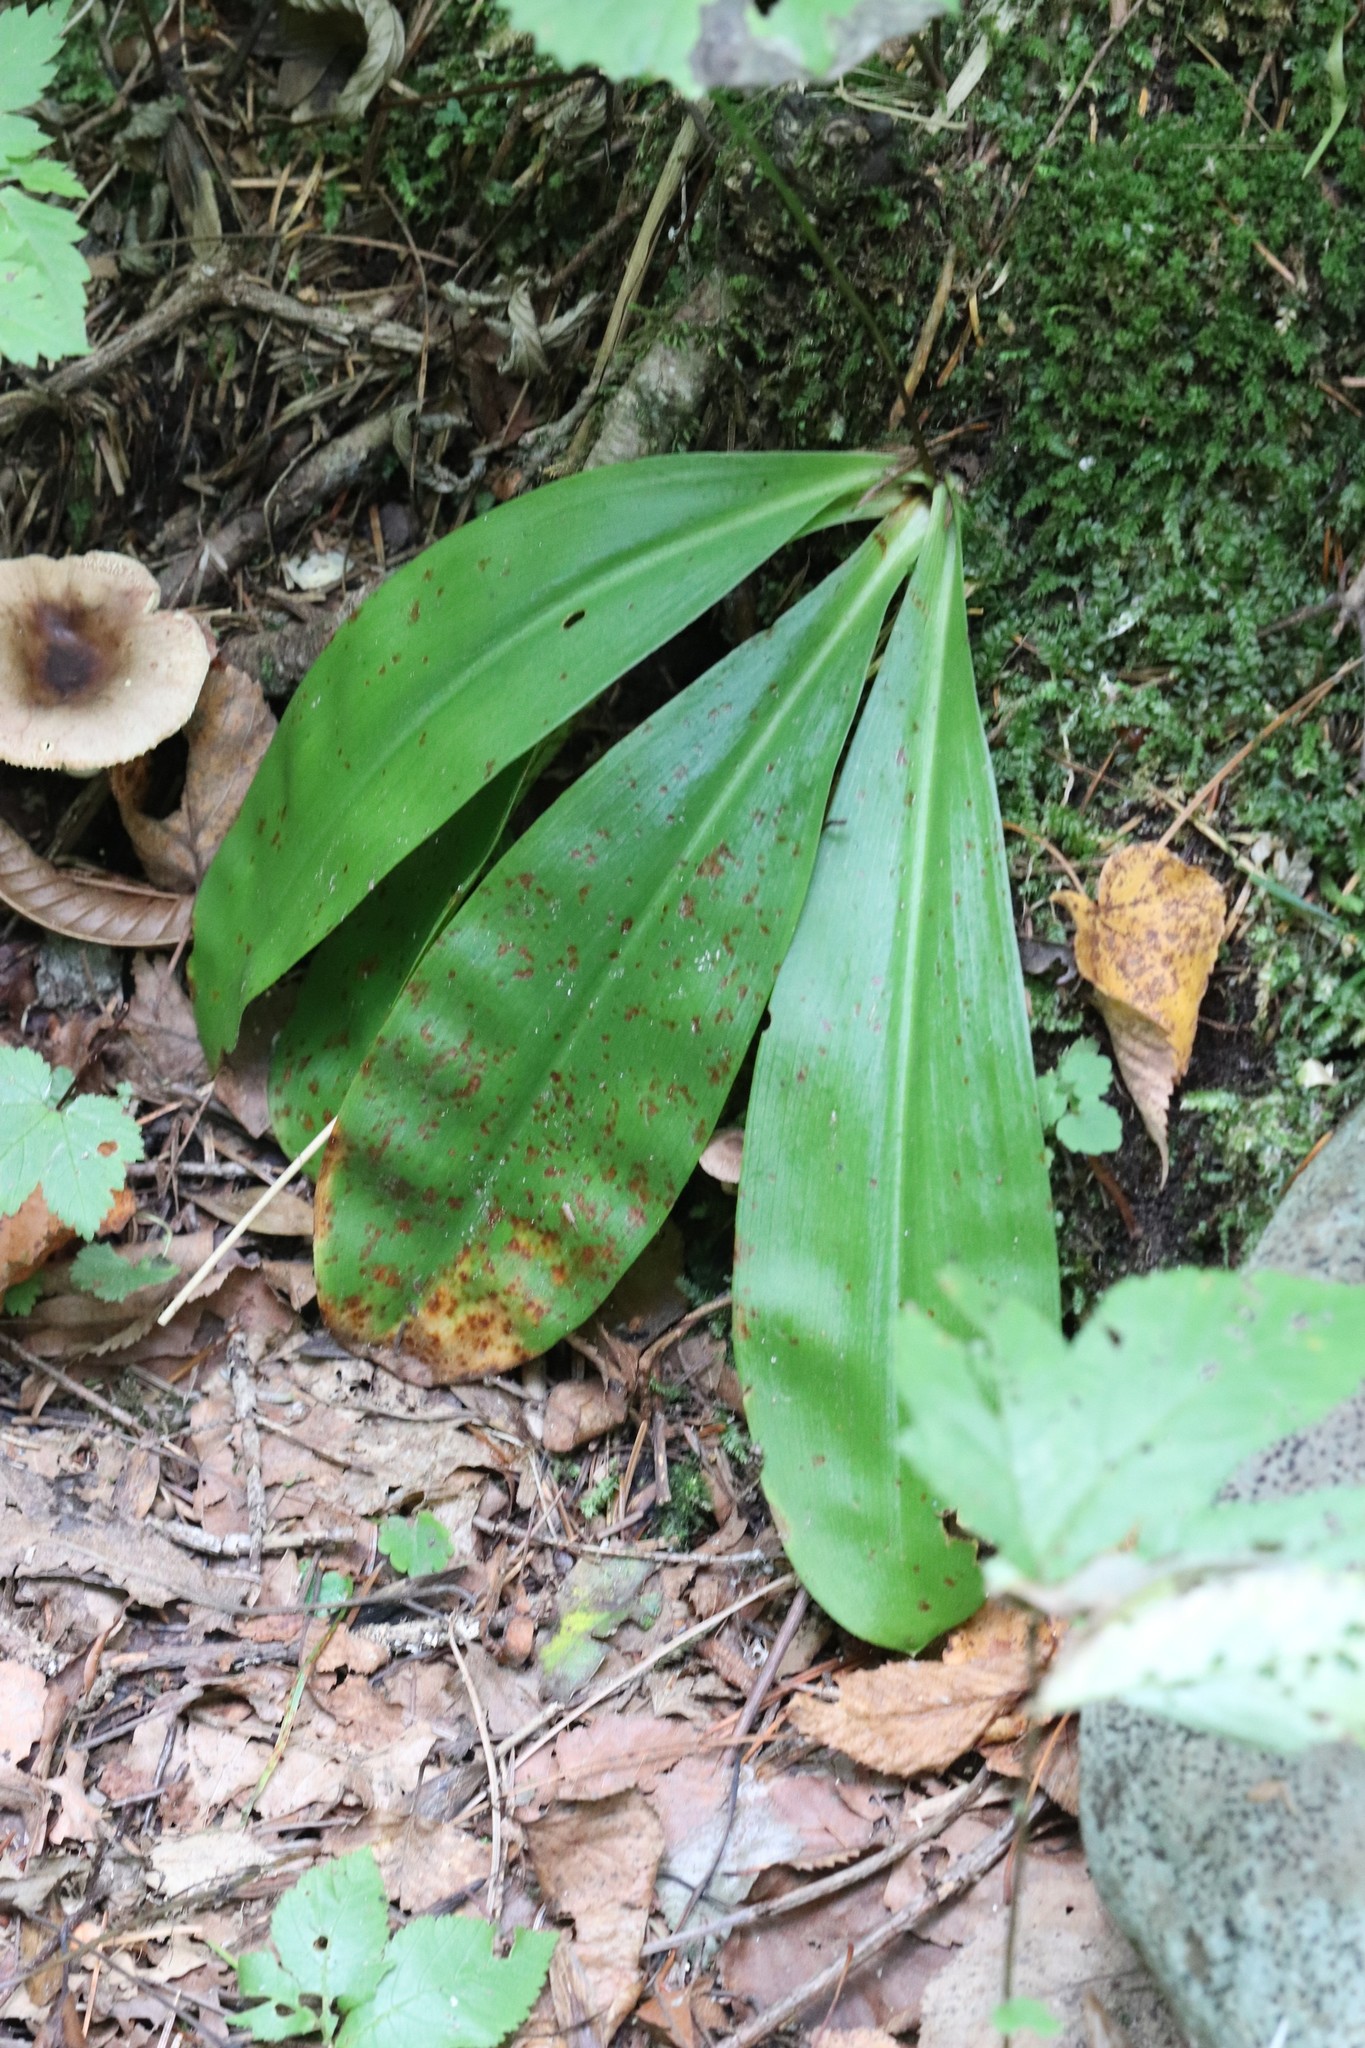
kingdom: Plantae
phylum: Tracheophyta
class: Liliopsida
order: Liliales
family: Liliaceae
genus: Clintonia
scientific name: Clintonia udensis
